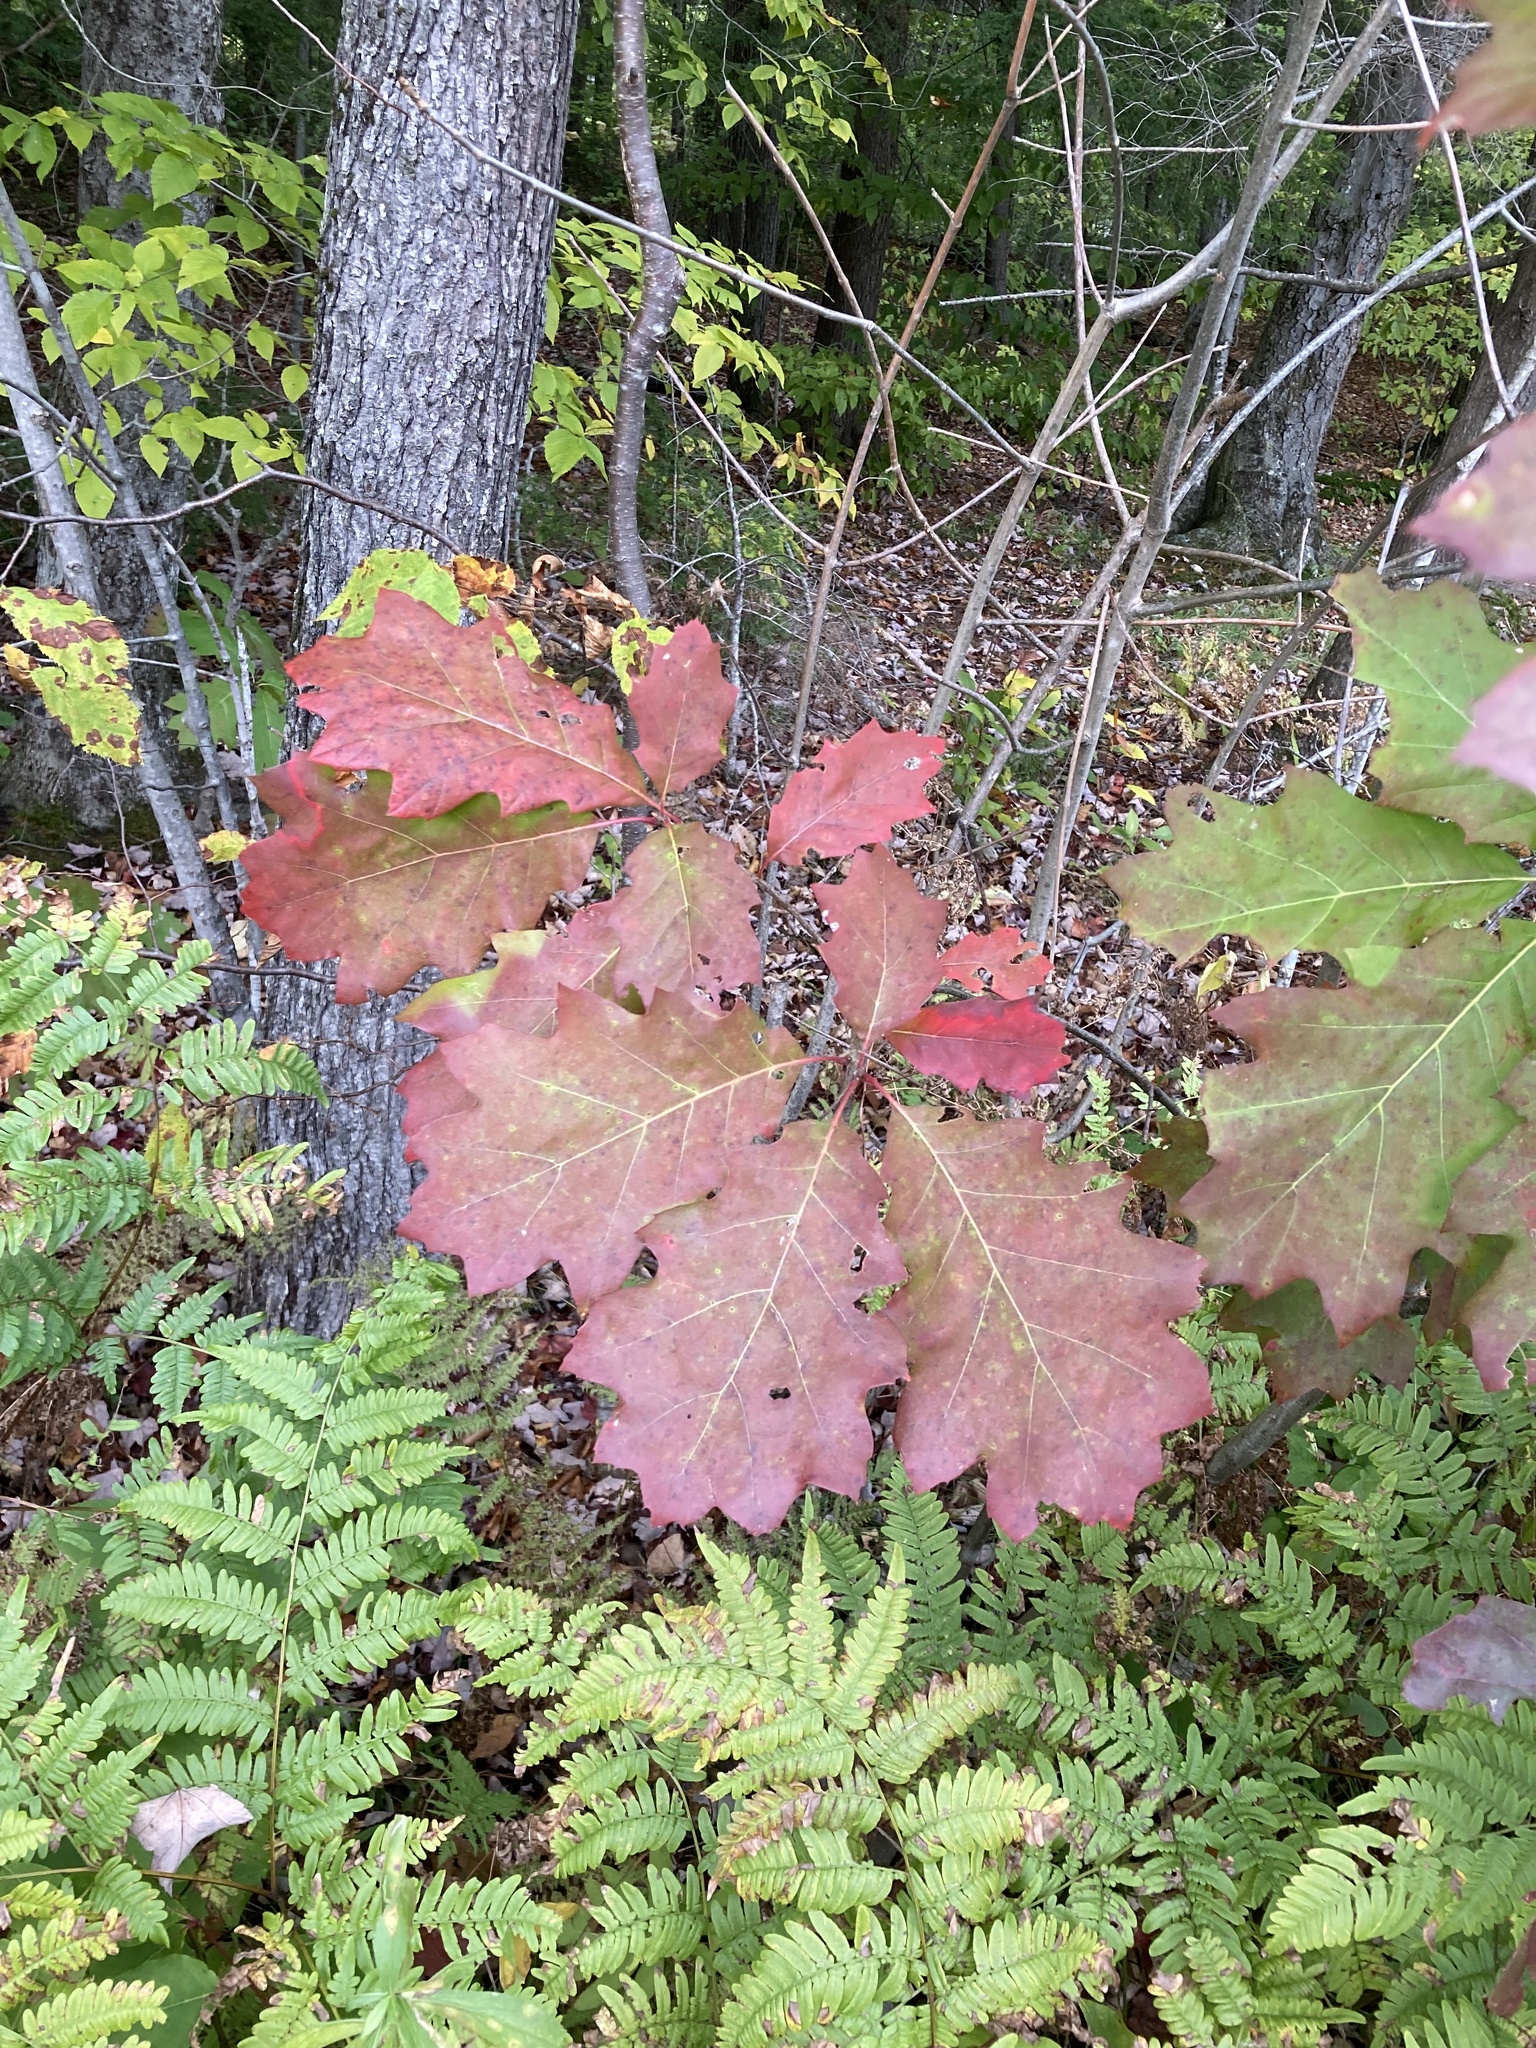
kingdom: Plantae
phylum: Tracheophyta
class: Magnoliopsida
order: Fagales
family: Fagaceae
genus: Quercus
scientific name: Quercus rubra
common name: Red oak
